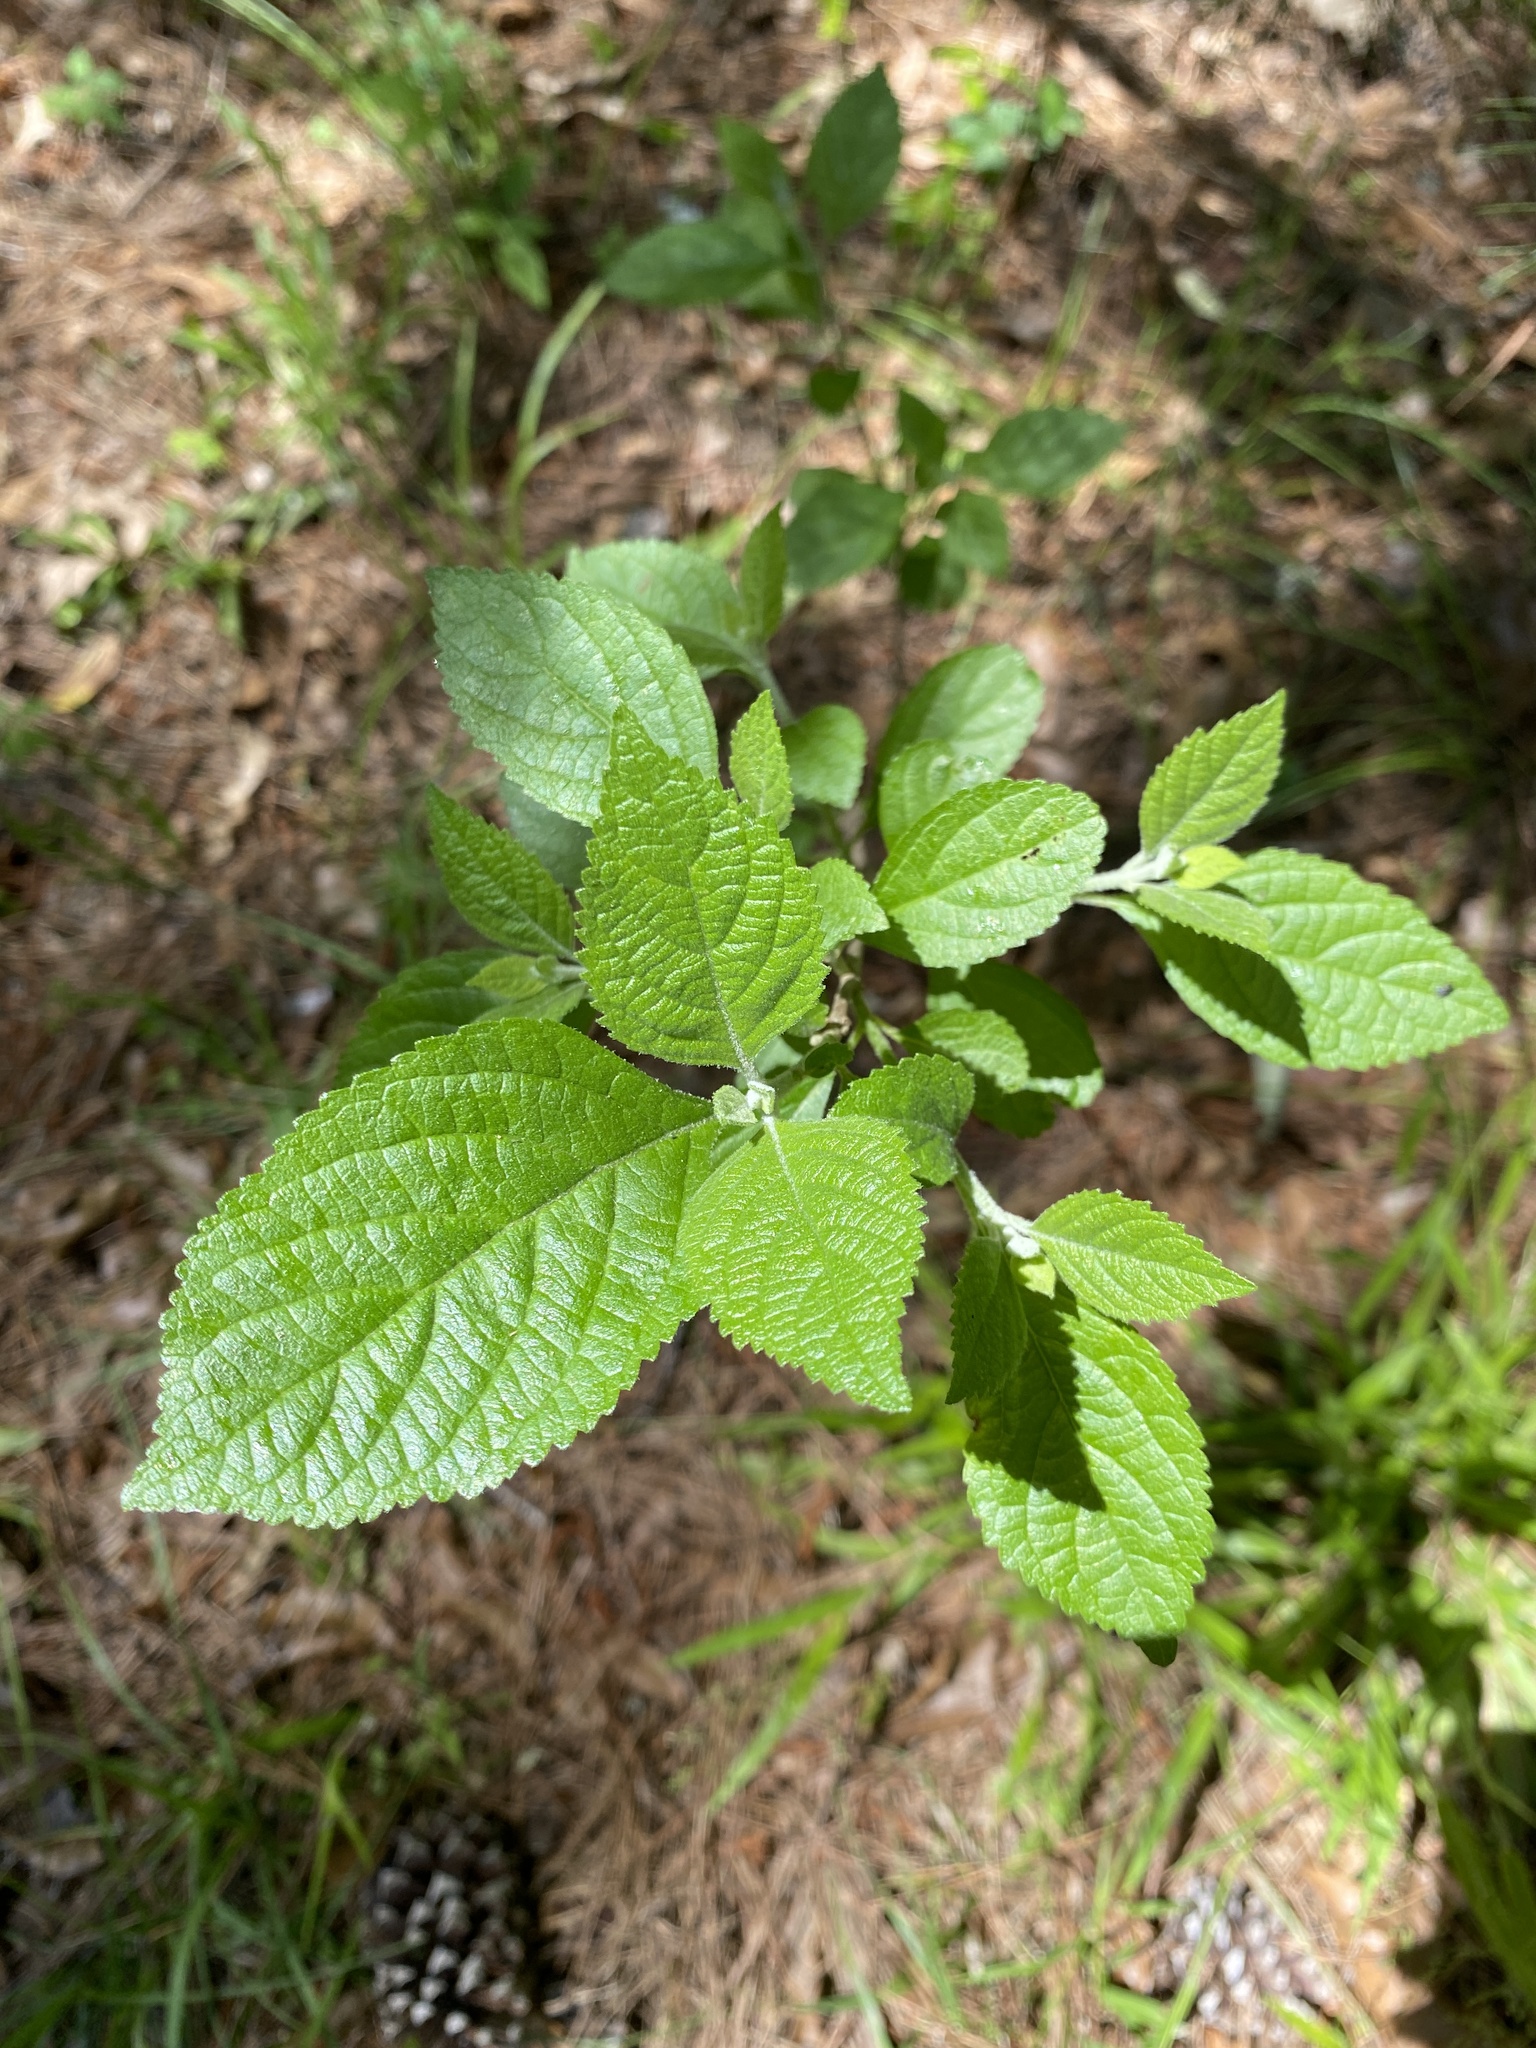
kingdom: Plantae
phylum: Tracheophyta
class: Magnoliopsida
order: Lamiales
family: Lamiaceae
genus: Callicarpa
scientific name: Callicarpa americana
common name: American beautyberry
